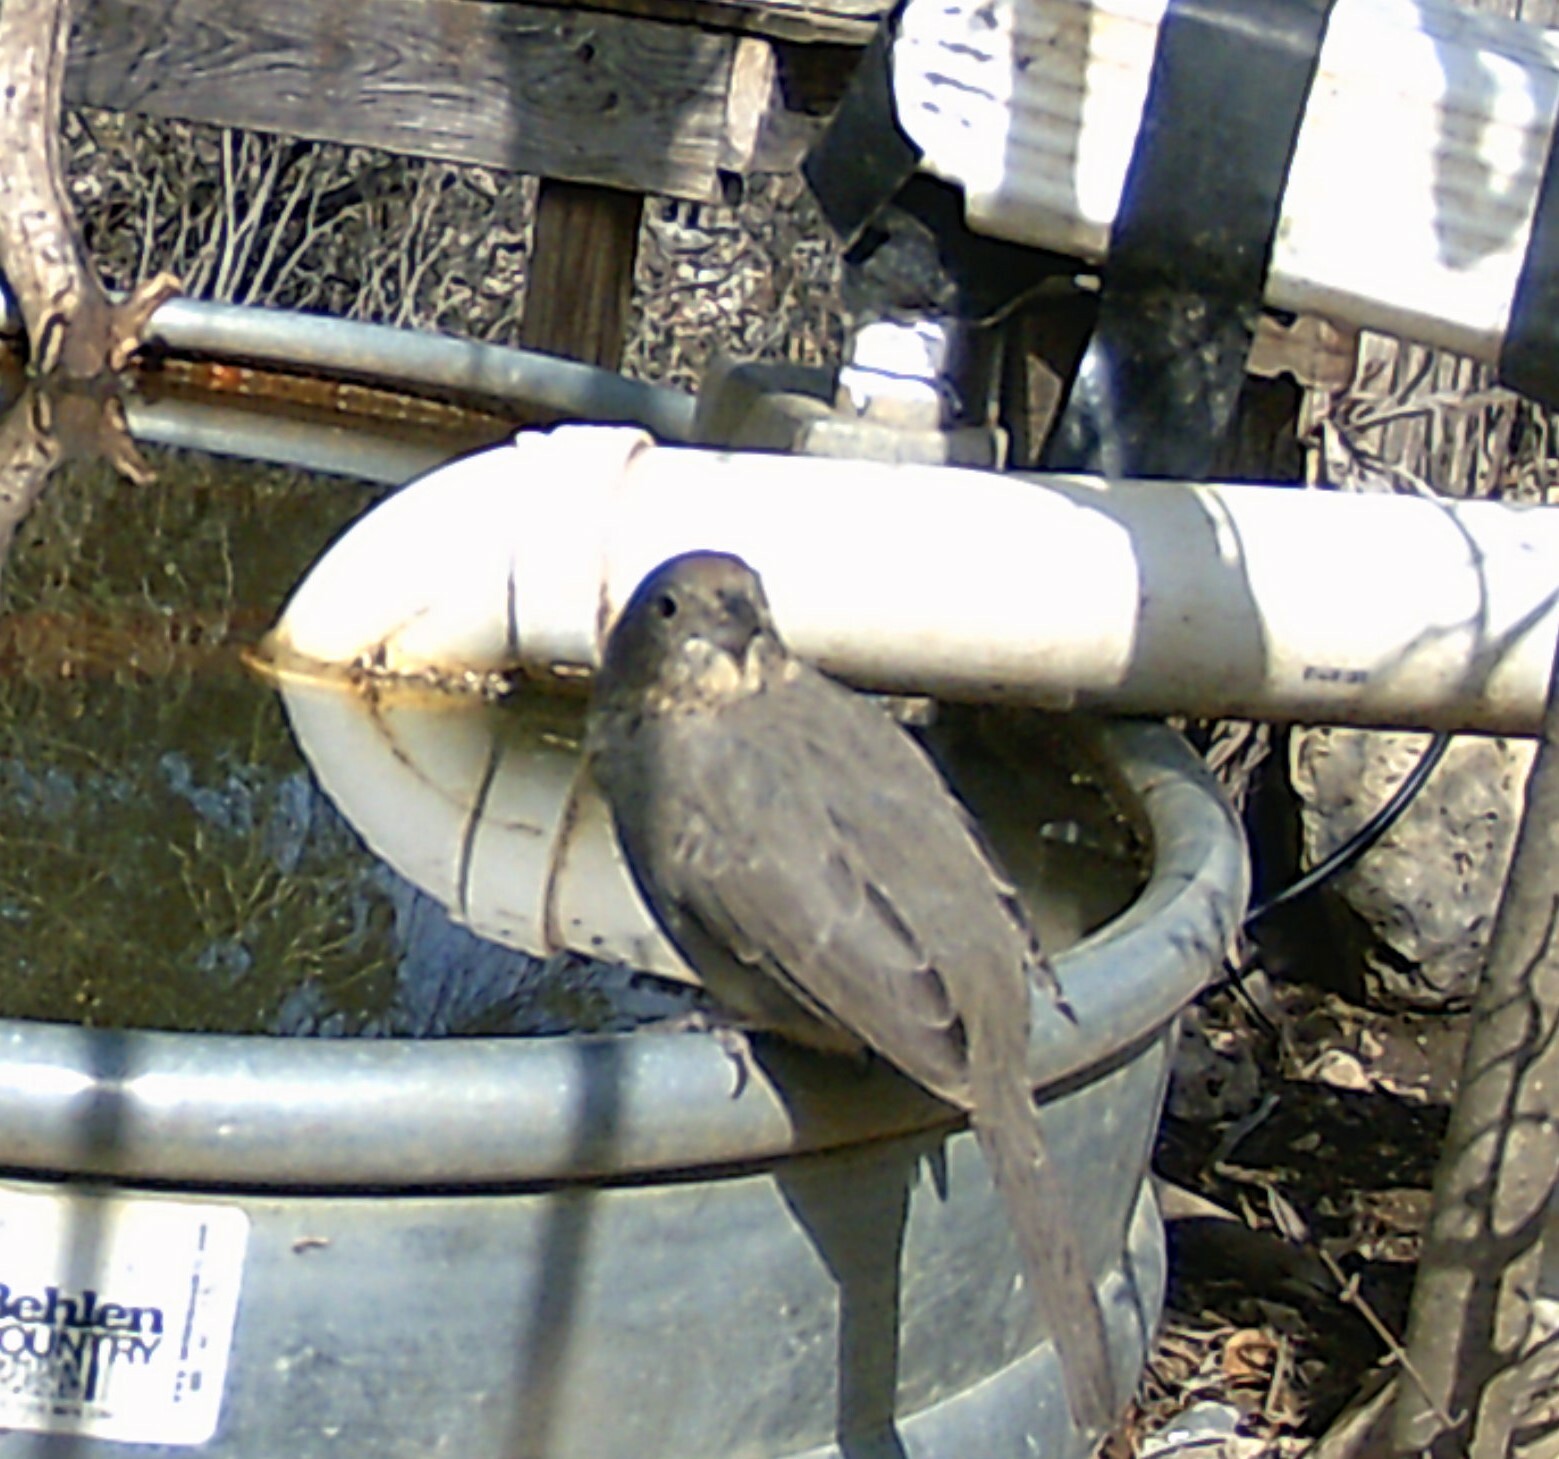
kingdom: Animalia
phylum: Chordata
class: Aves
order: Passeriformes
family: Passerellidae
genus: Melozone
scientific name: Melozone fusca
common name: Canyon towhee
